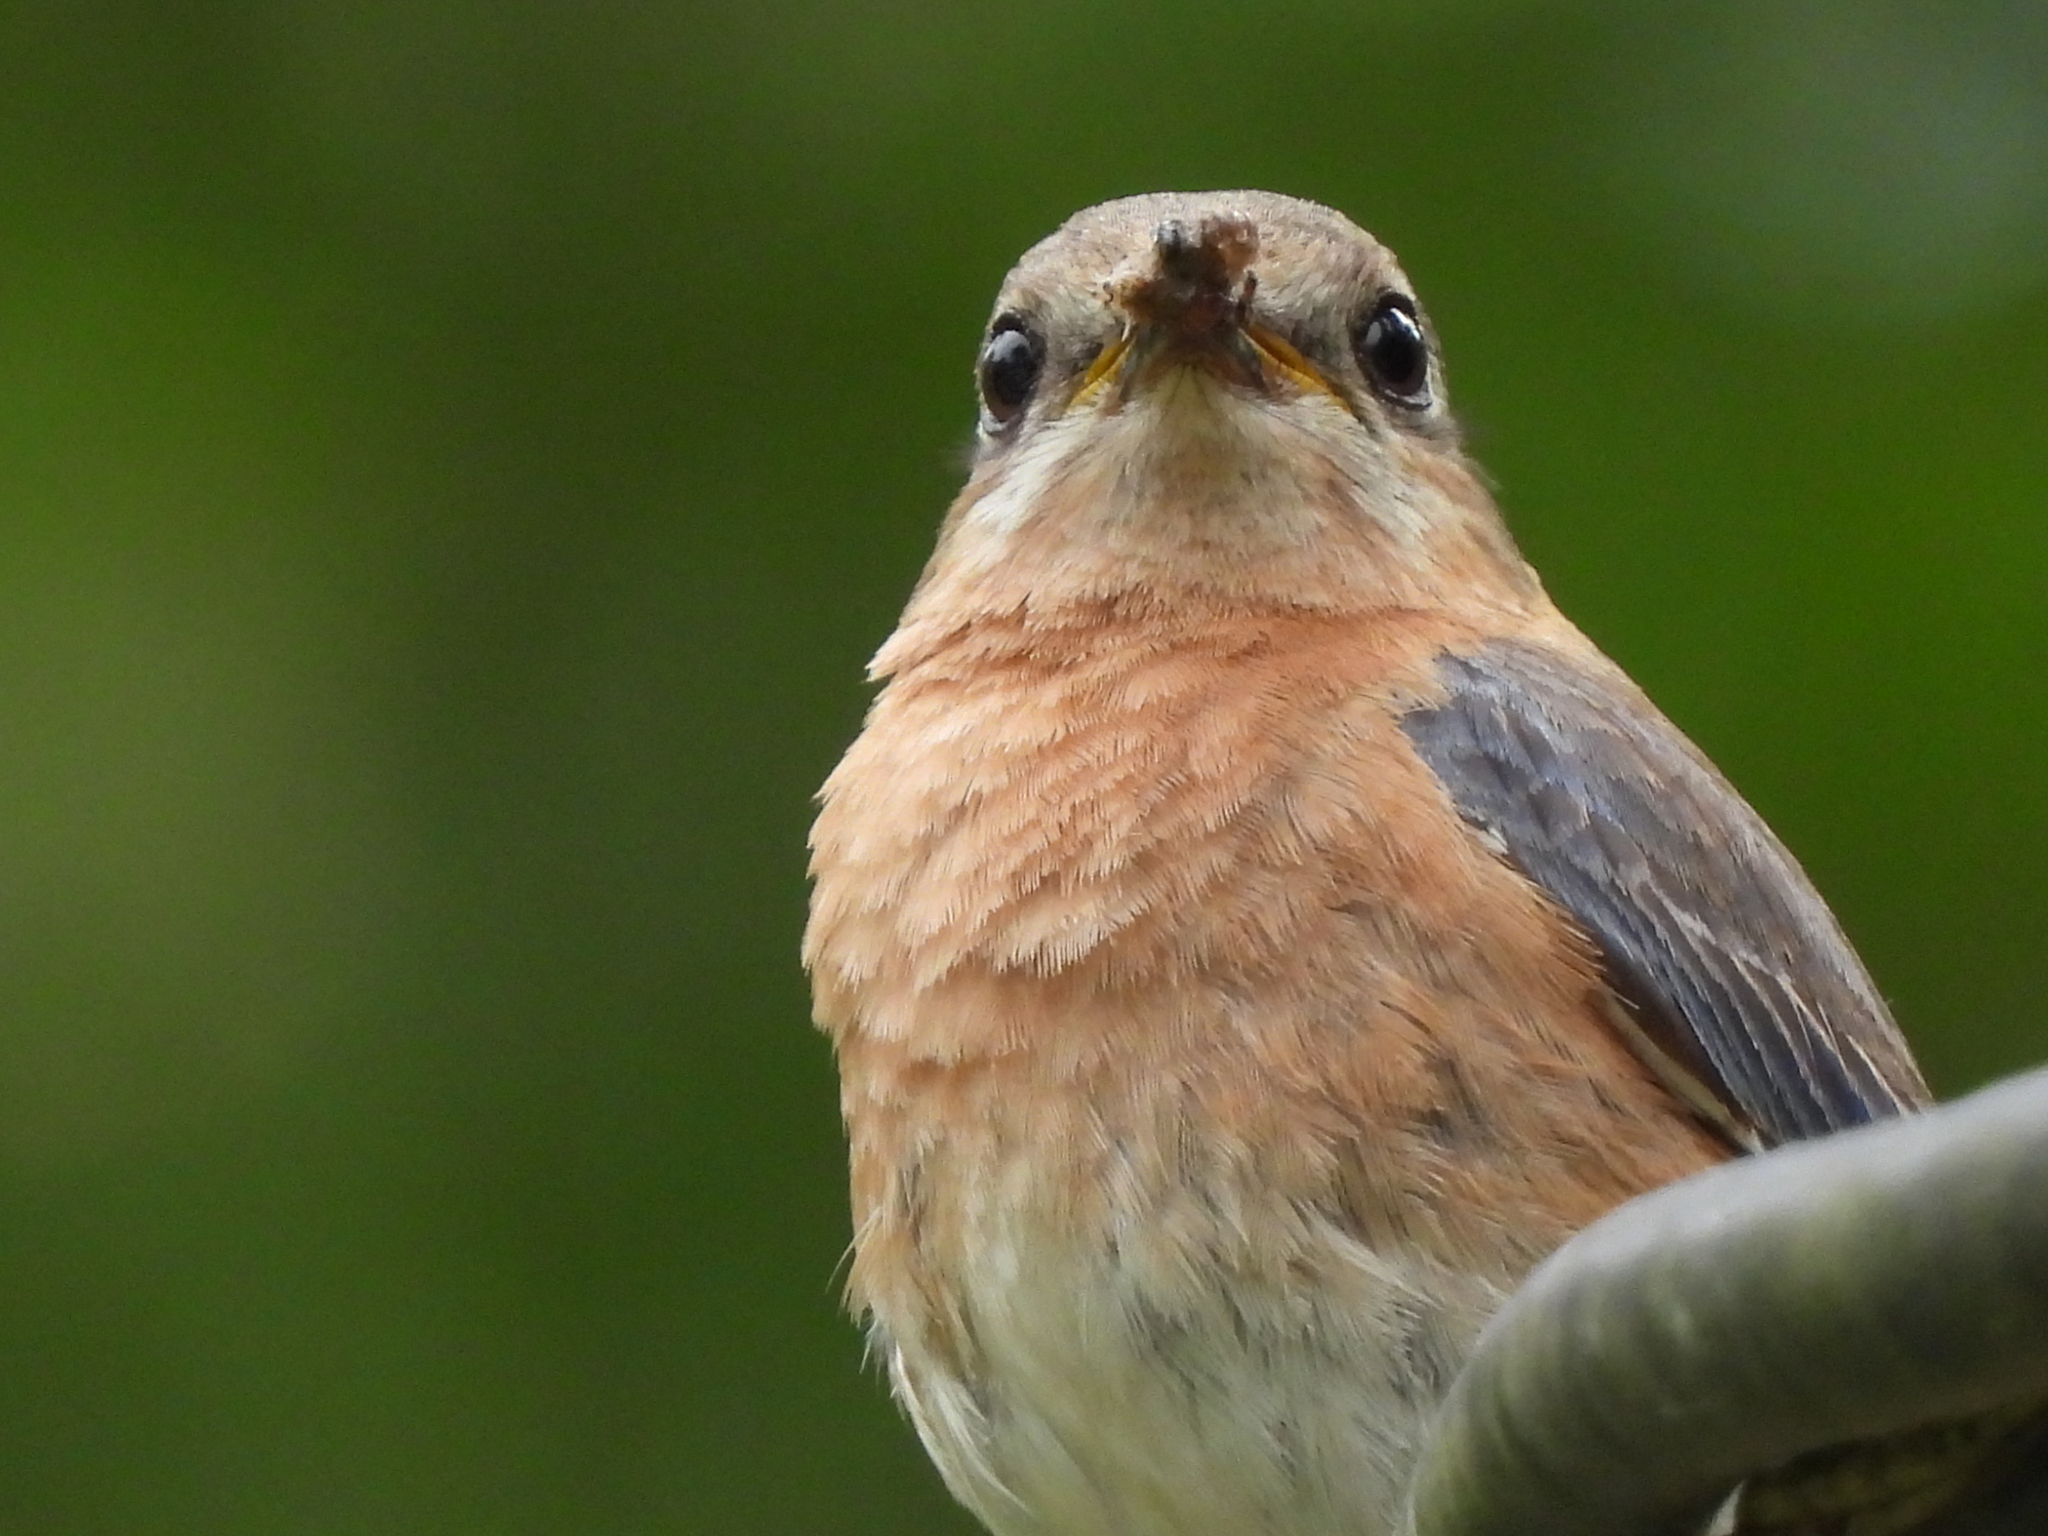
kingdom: Animalia
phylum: Chordata
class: Aves
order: Passeriformes
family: Turdidae
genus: Sialia
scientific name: Sialia sialis
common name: Eastern bluebird
